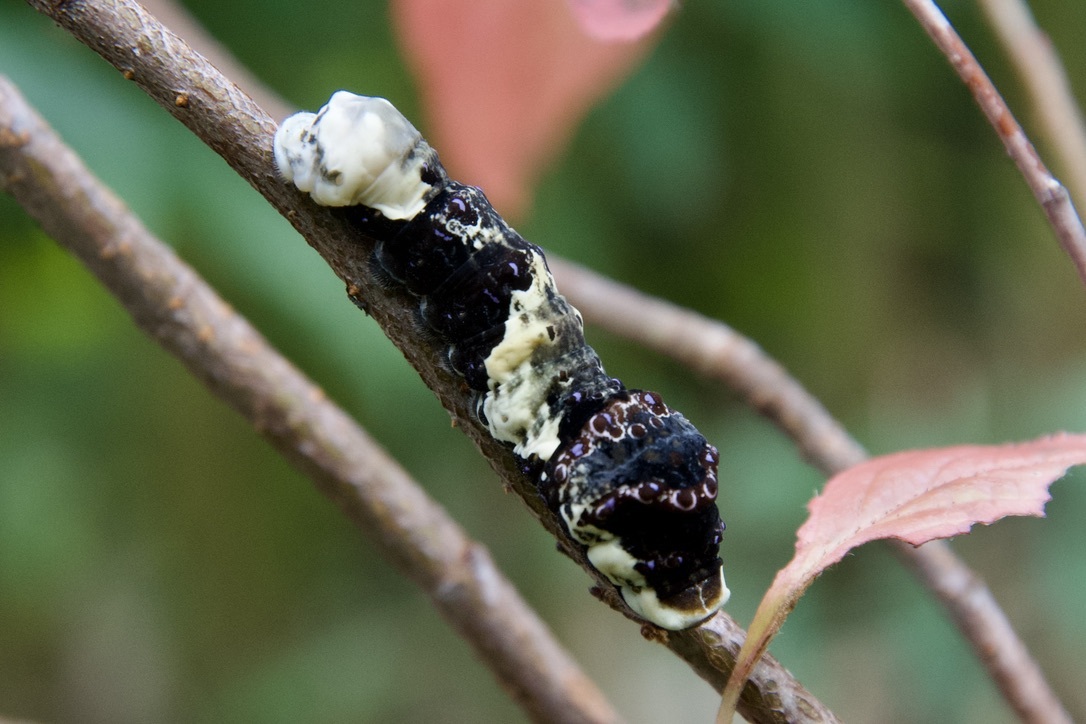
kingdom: Animalia
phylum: Arthropoda
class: Insecta
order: Lepidoptera
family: Papilionidae
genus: Papilio
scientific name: Papilio cresphontes
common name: Giant swallowtail
